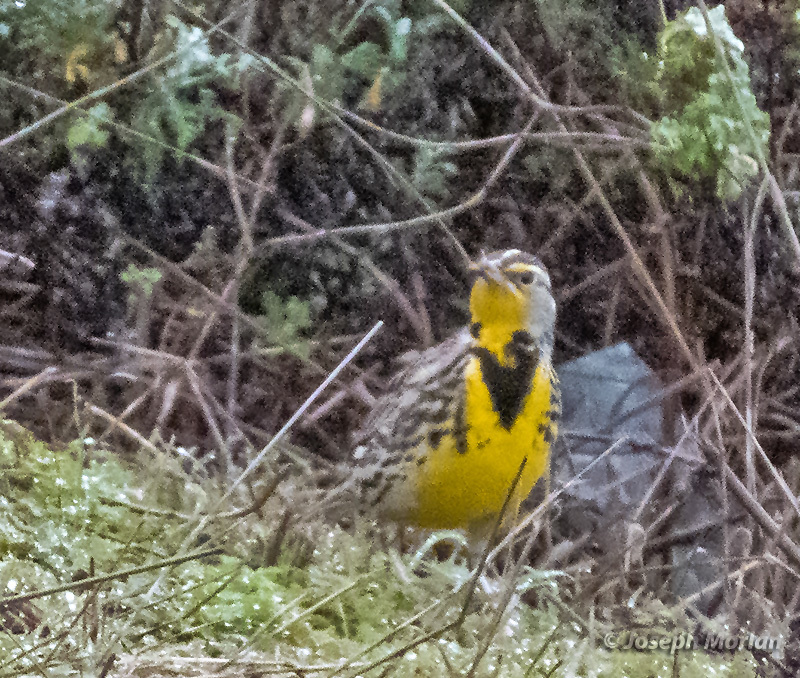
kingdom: Animalia
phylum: Chordata
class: Aves
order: Passeriformes
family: Icteridae
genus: Sturnella
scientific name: Sturnella neglecta
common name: Western meadowlark
